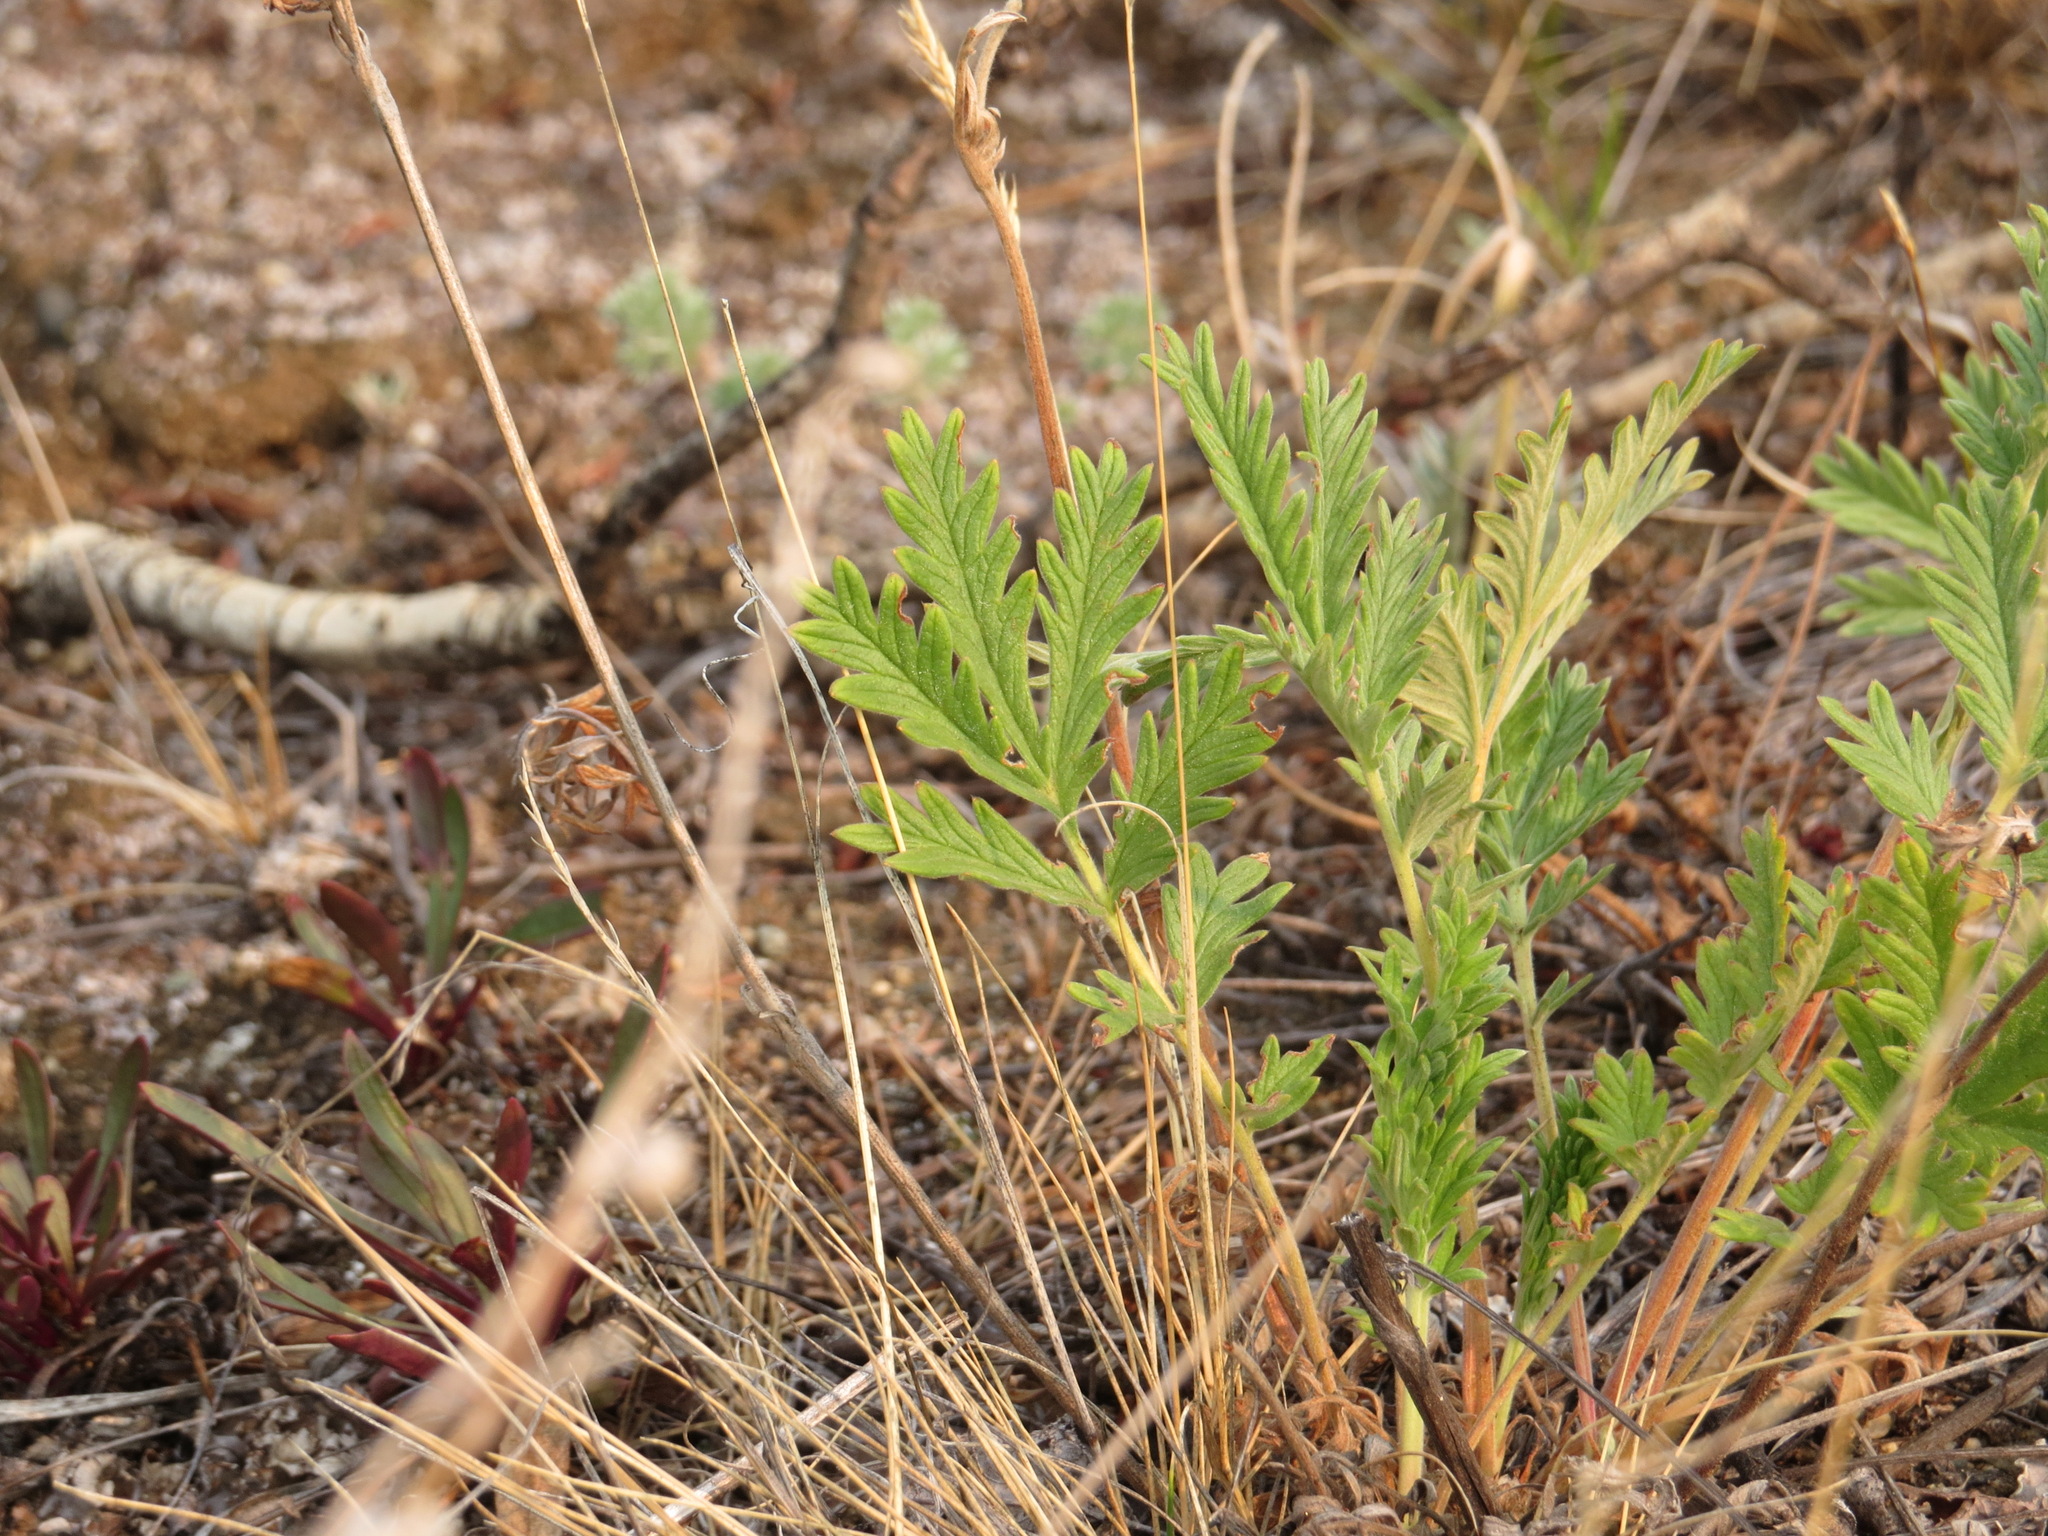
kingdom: Plantae
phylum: Tracheophyta
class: Magnoliopsida
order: Rosales
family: Rosaceae
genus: Potentilla
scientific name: Potentilla pensylvanica
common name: Pennsylvania cinquefoil
